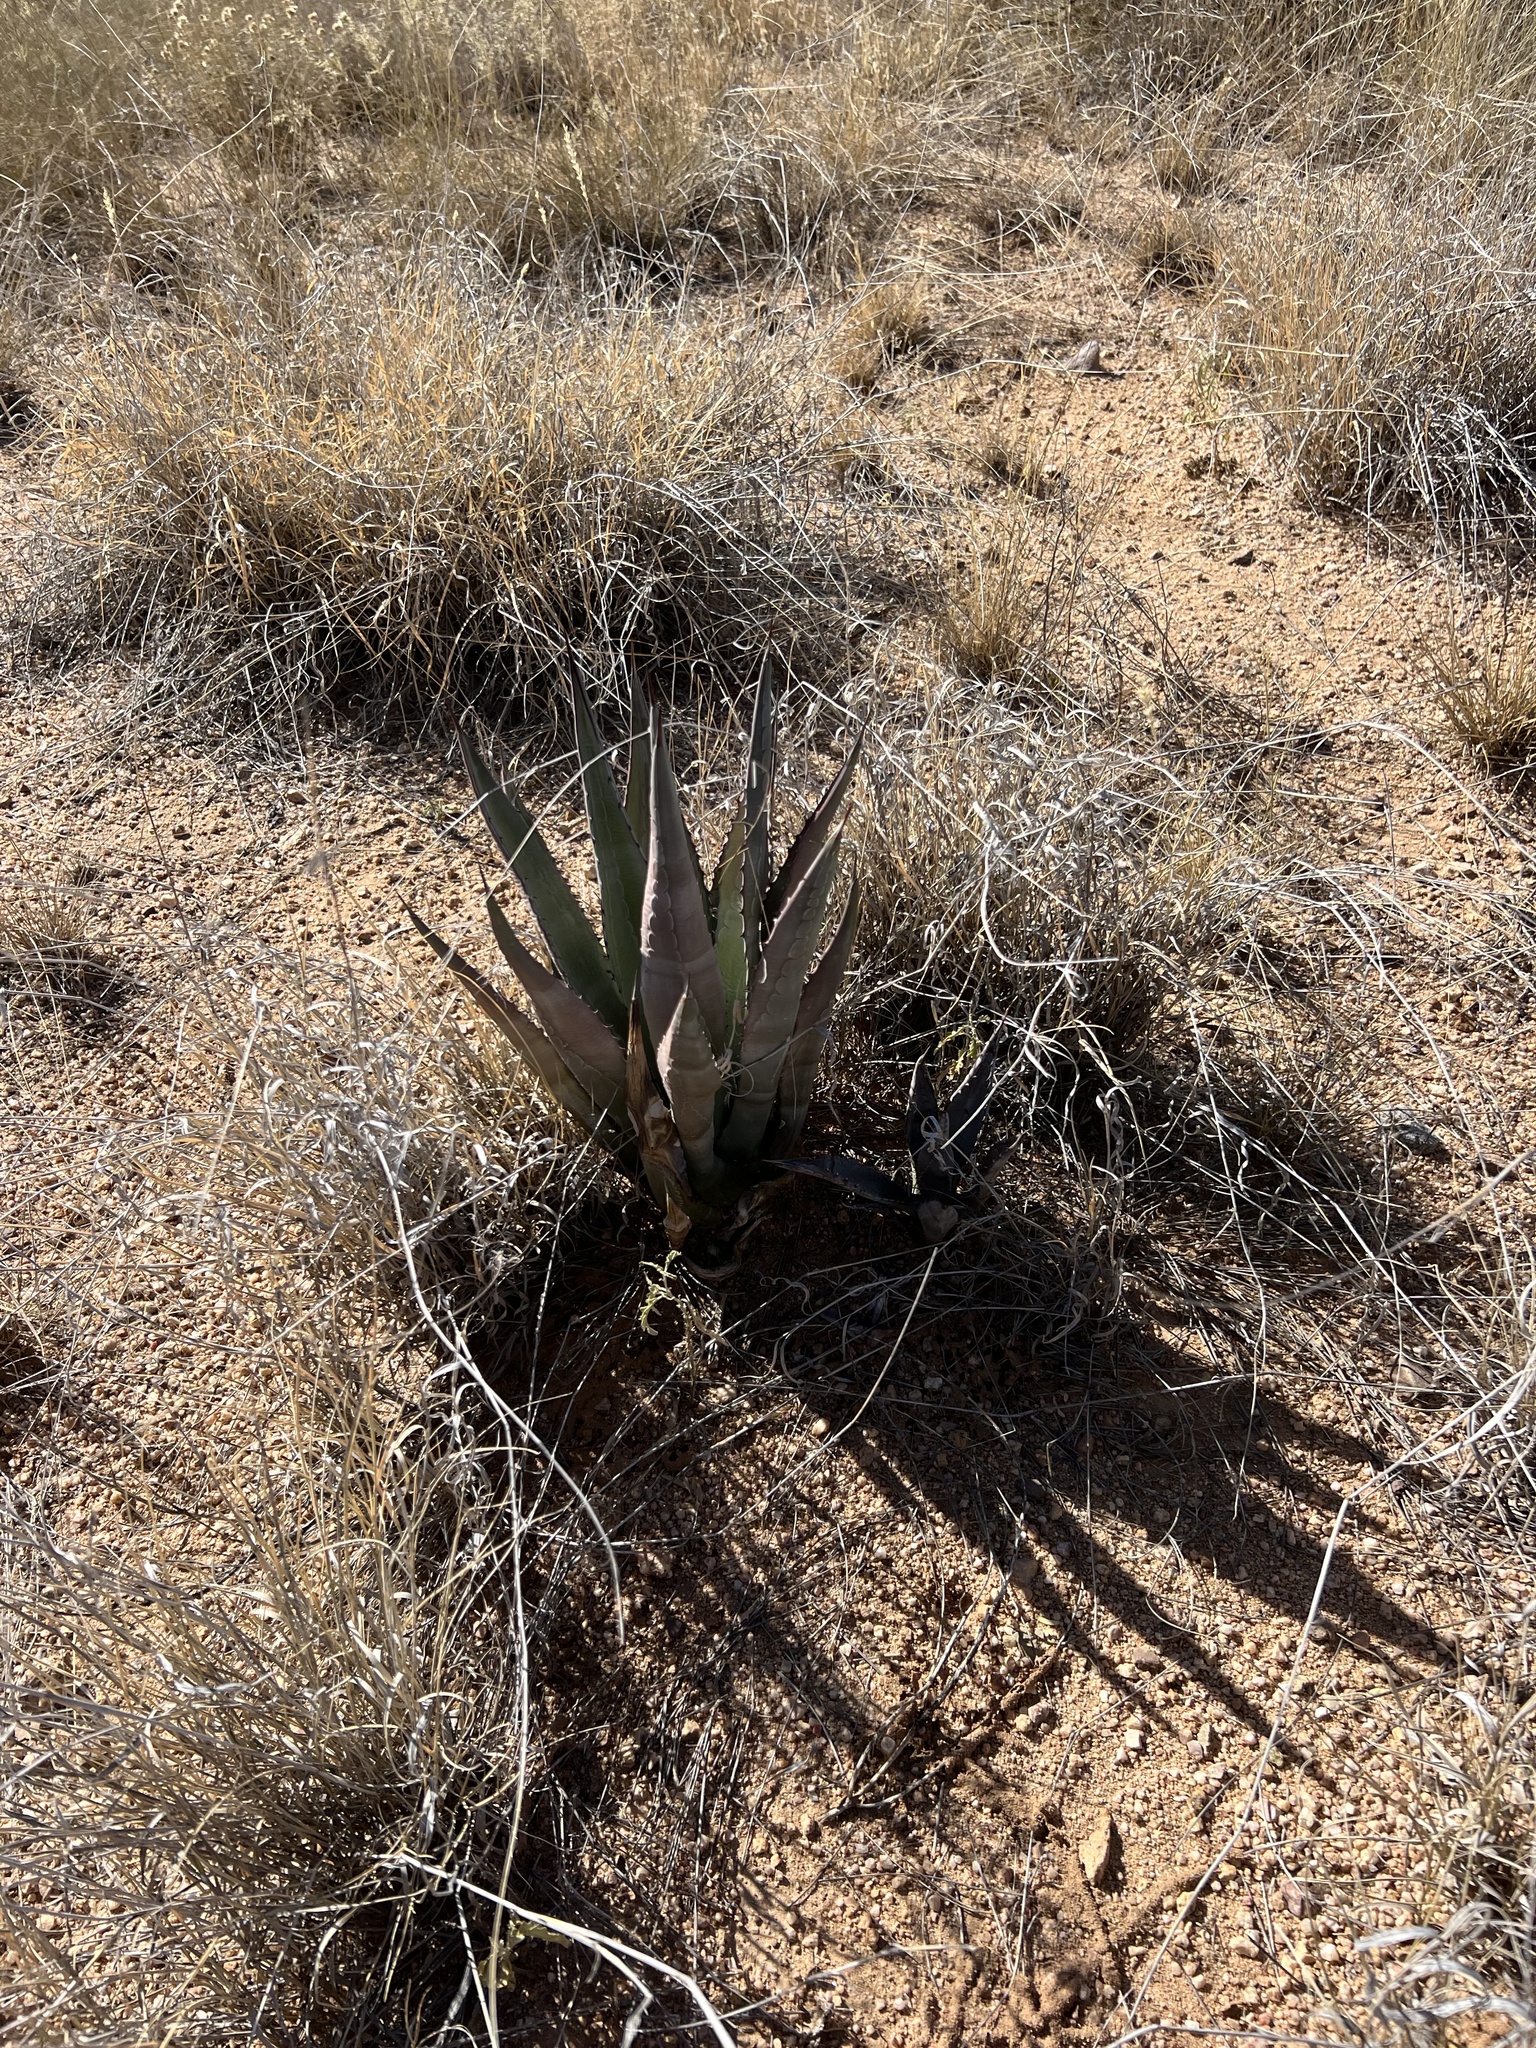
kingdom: Plantae
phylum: Tracheophyta
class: Liliopsida
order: Asparagales
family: Asparagaceae
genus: Agave
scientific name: Agave palmeri
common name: Palmer agave
